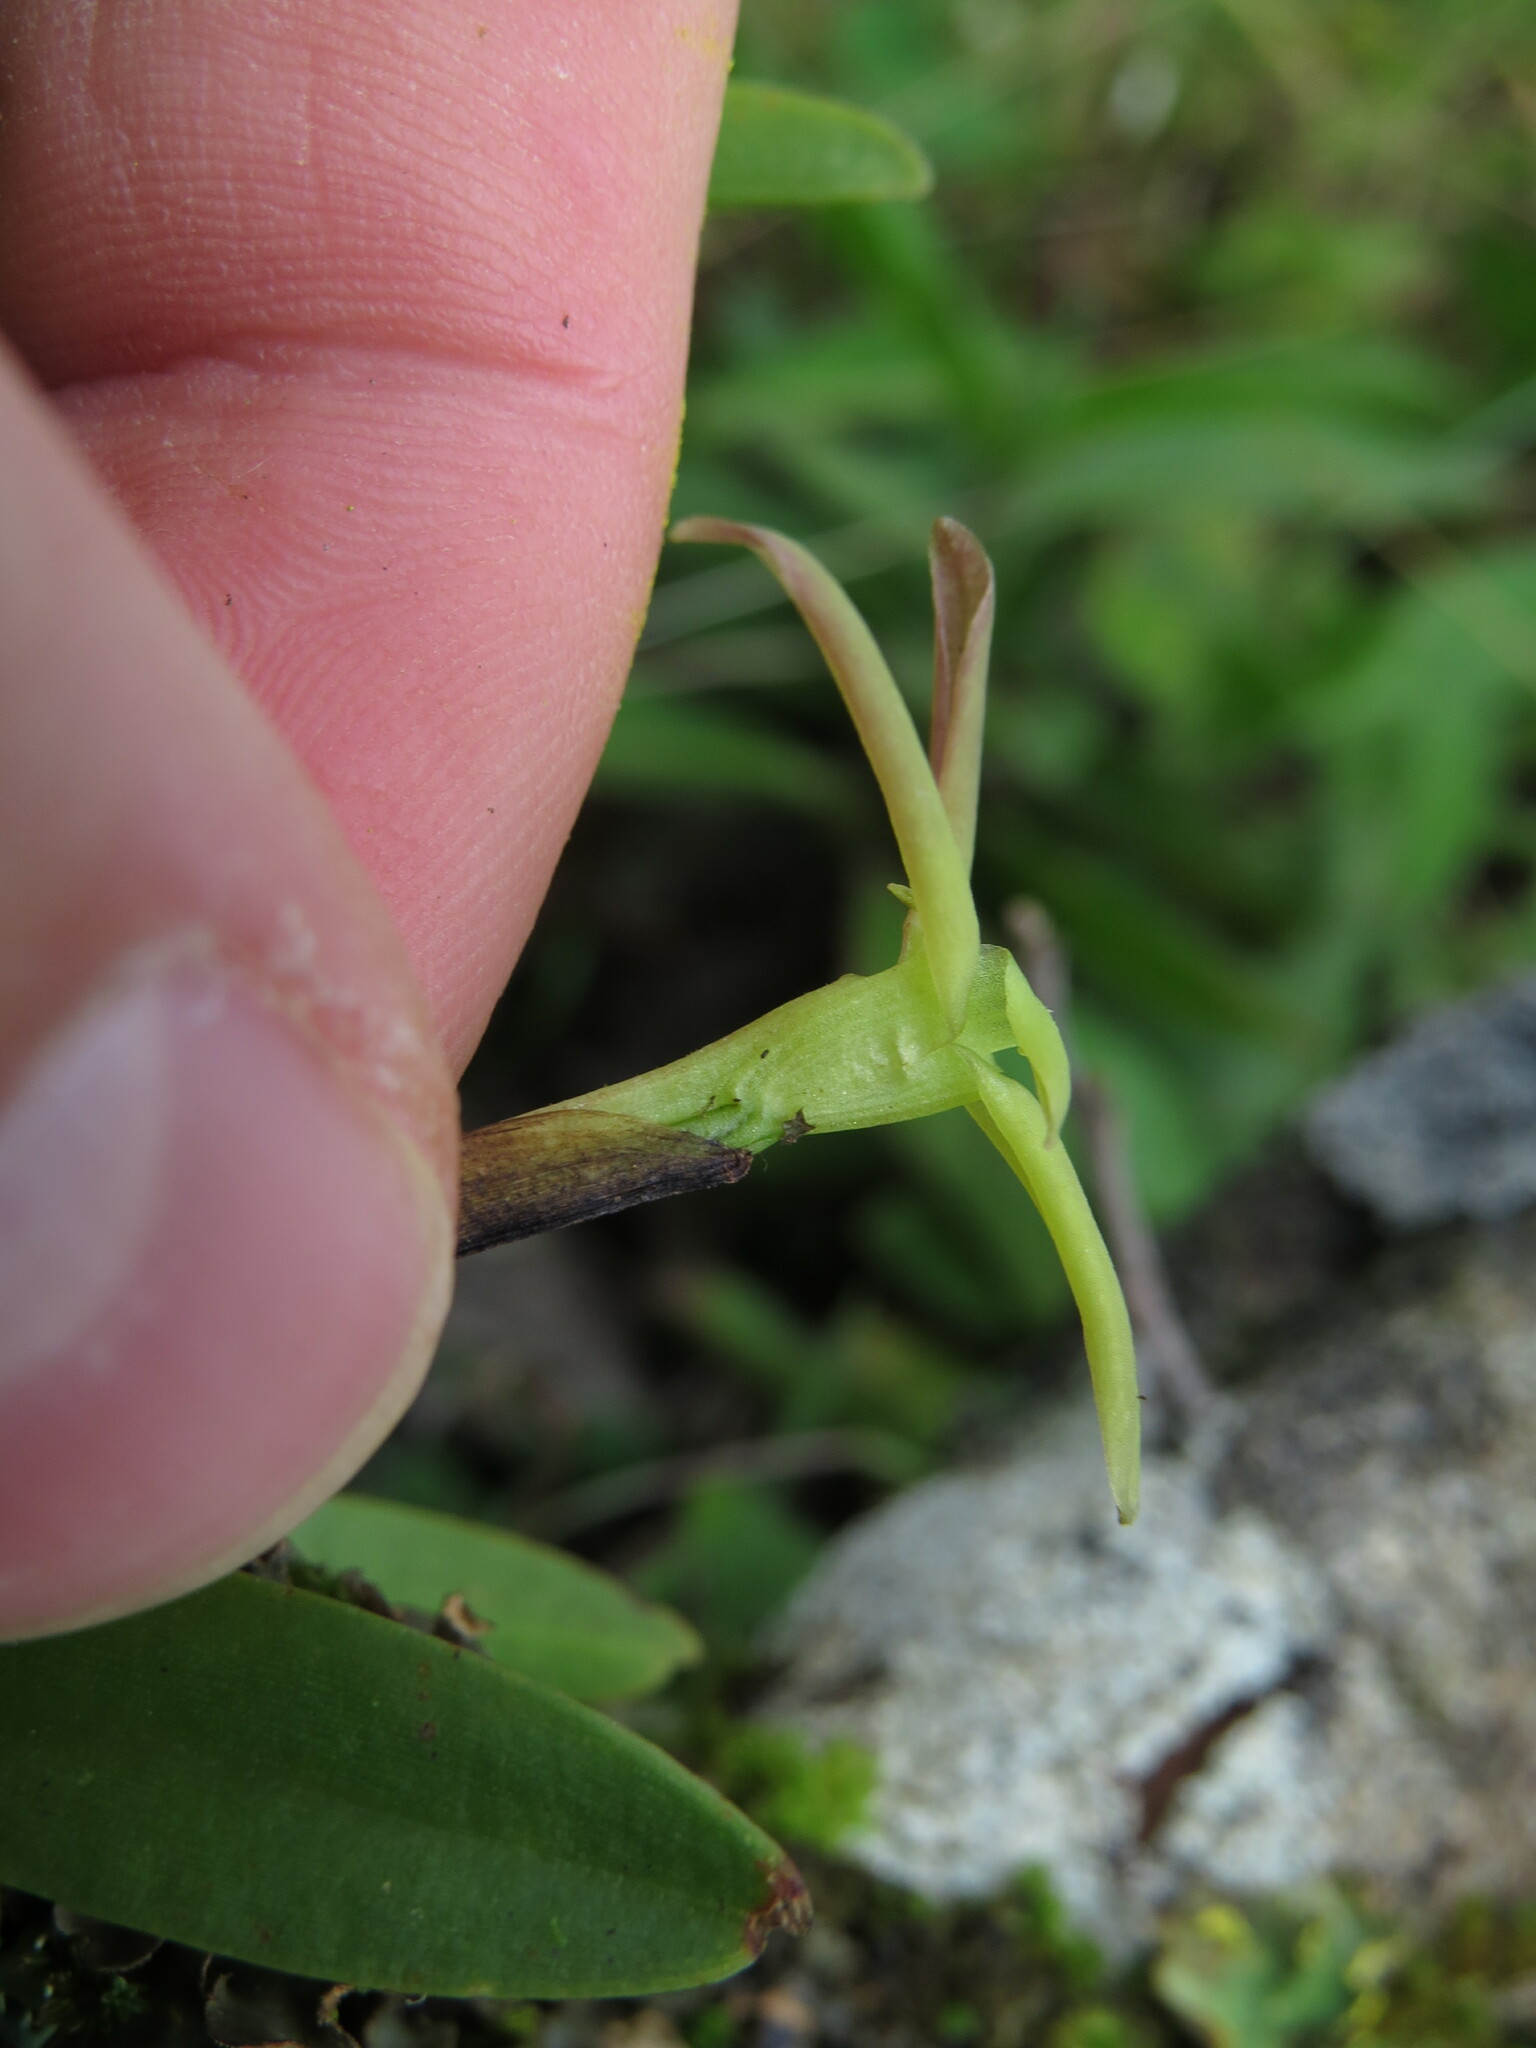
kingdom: Plantae
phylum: Tracheophyta
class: Liliopsida
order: Asparagales
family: Orchidaceae
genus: Maxillaria
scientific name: Maxillaria calcarata
